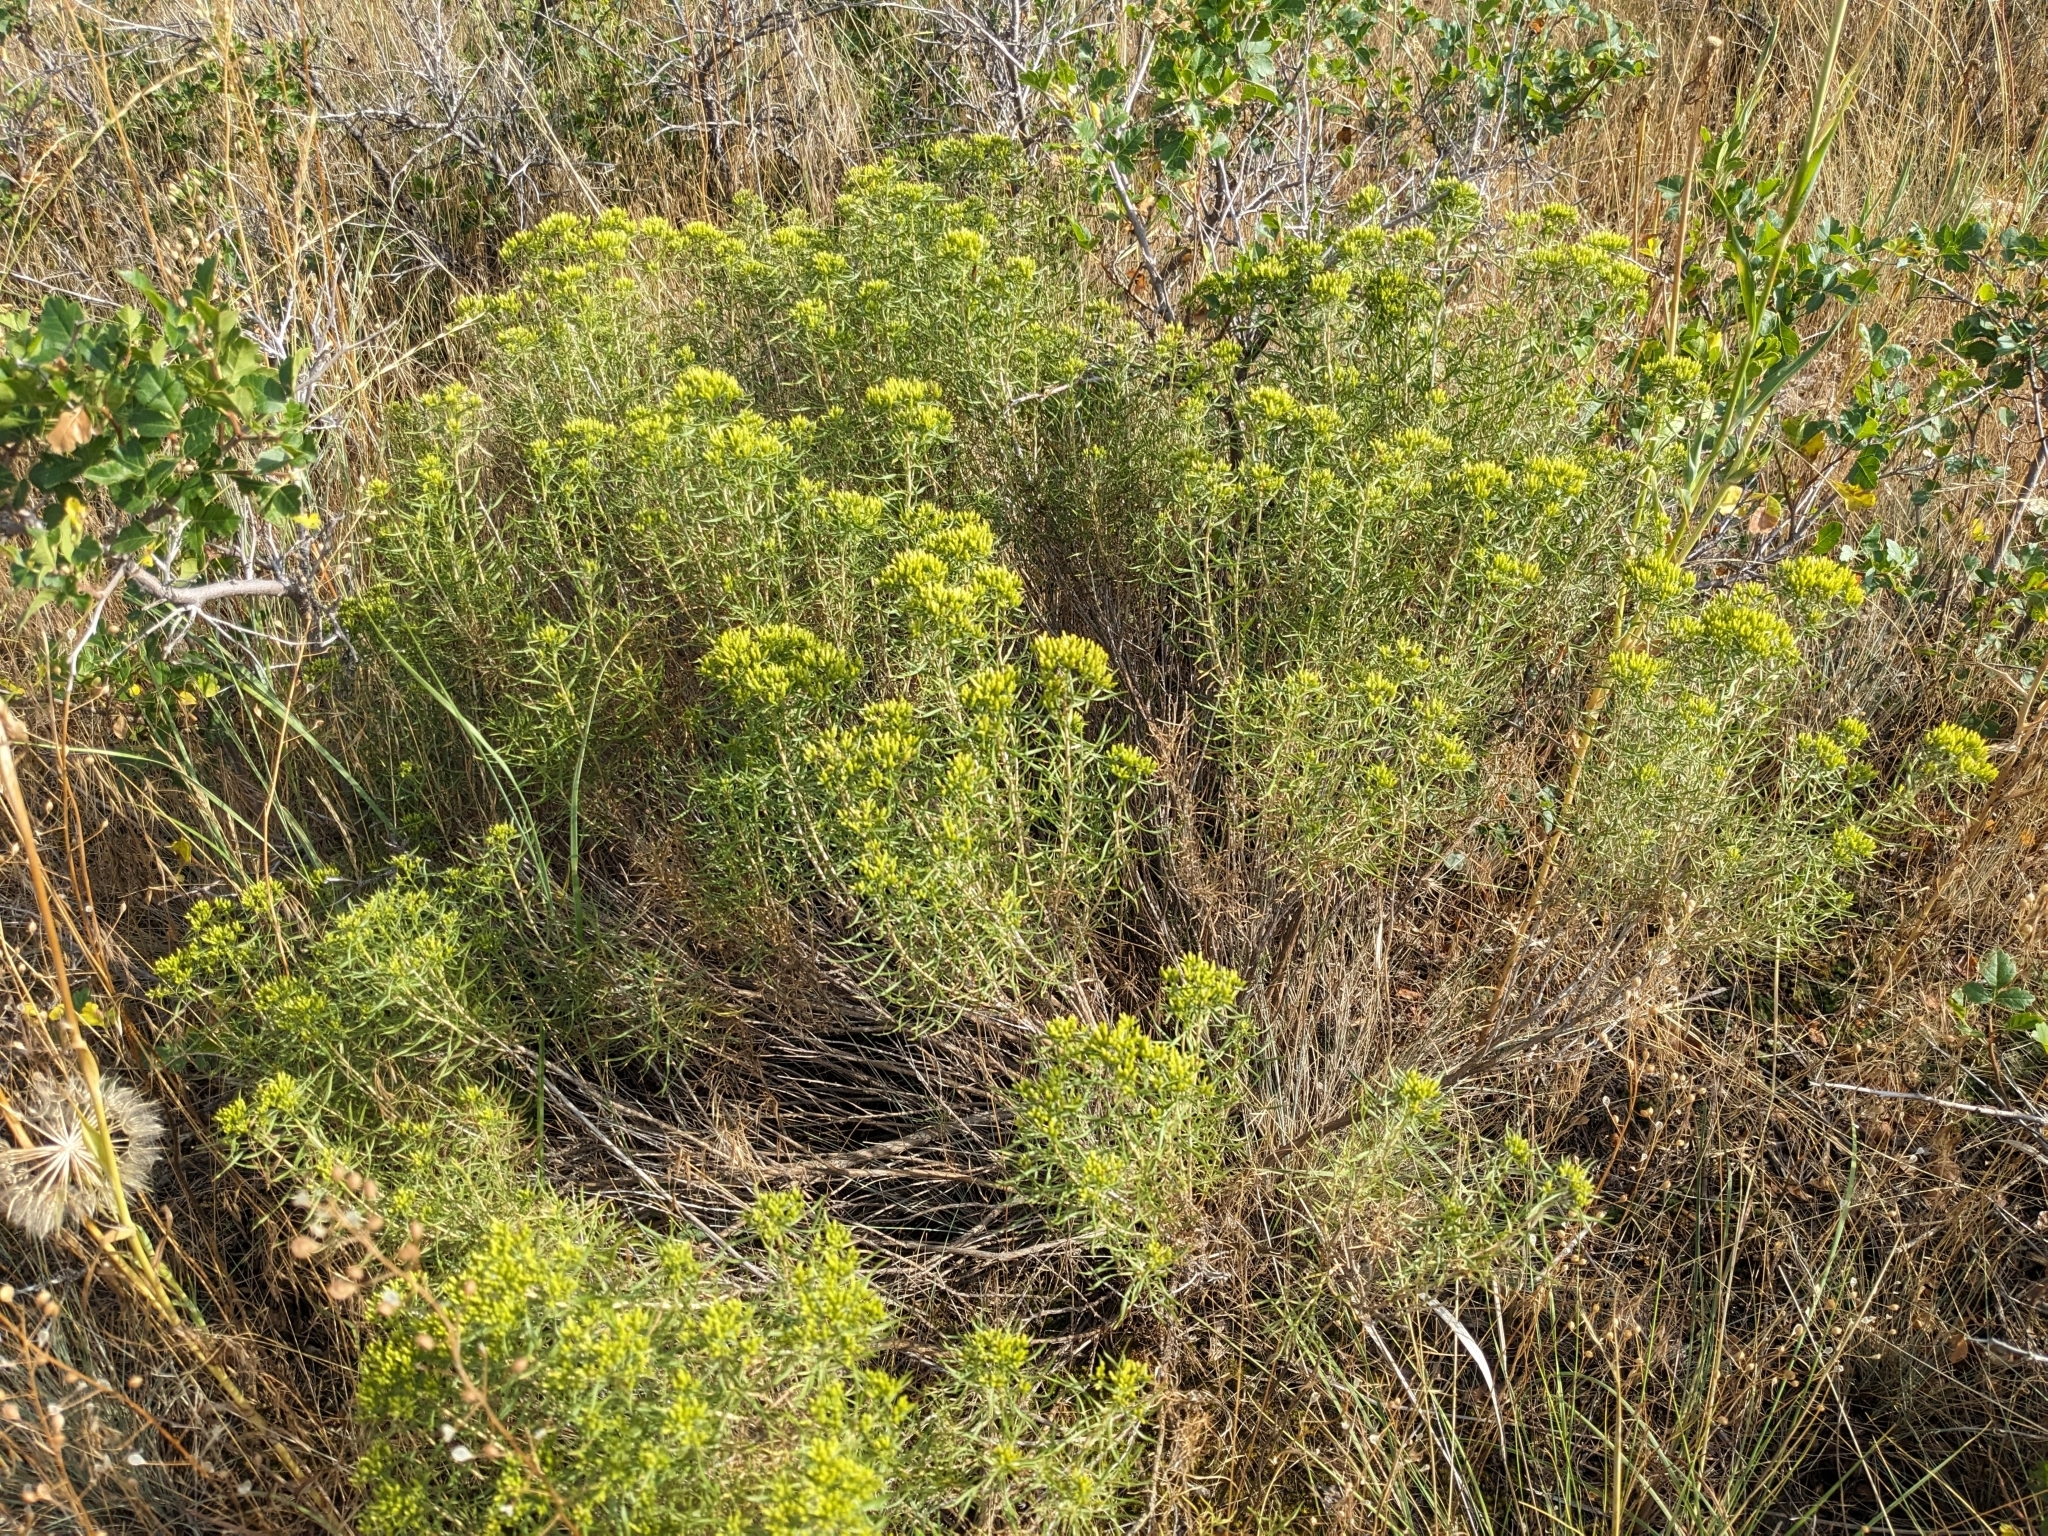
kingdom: Plantae
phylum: Tracheophyta
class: Magnoliopsida
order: Asterales
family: Asteraceae
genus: Ericameria
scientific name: Ericameria nauseosa
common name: Rubber rabbitbrush
